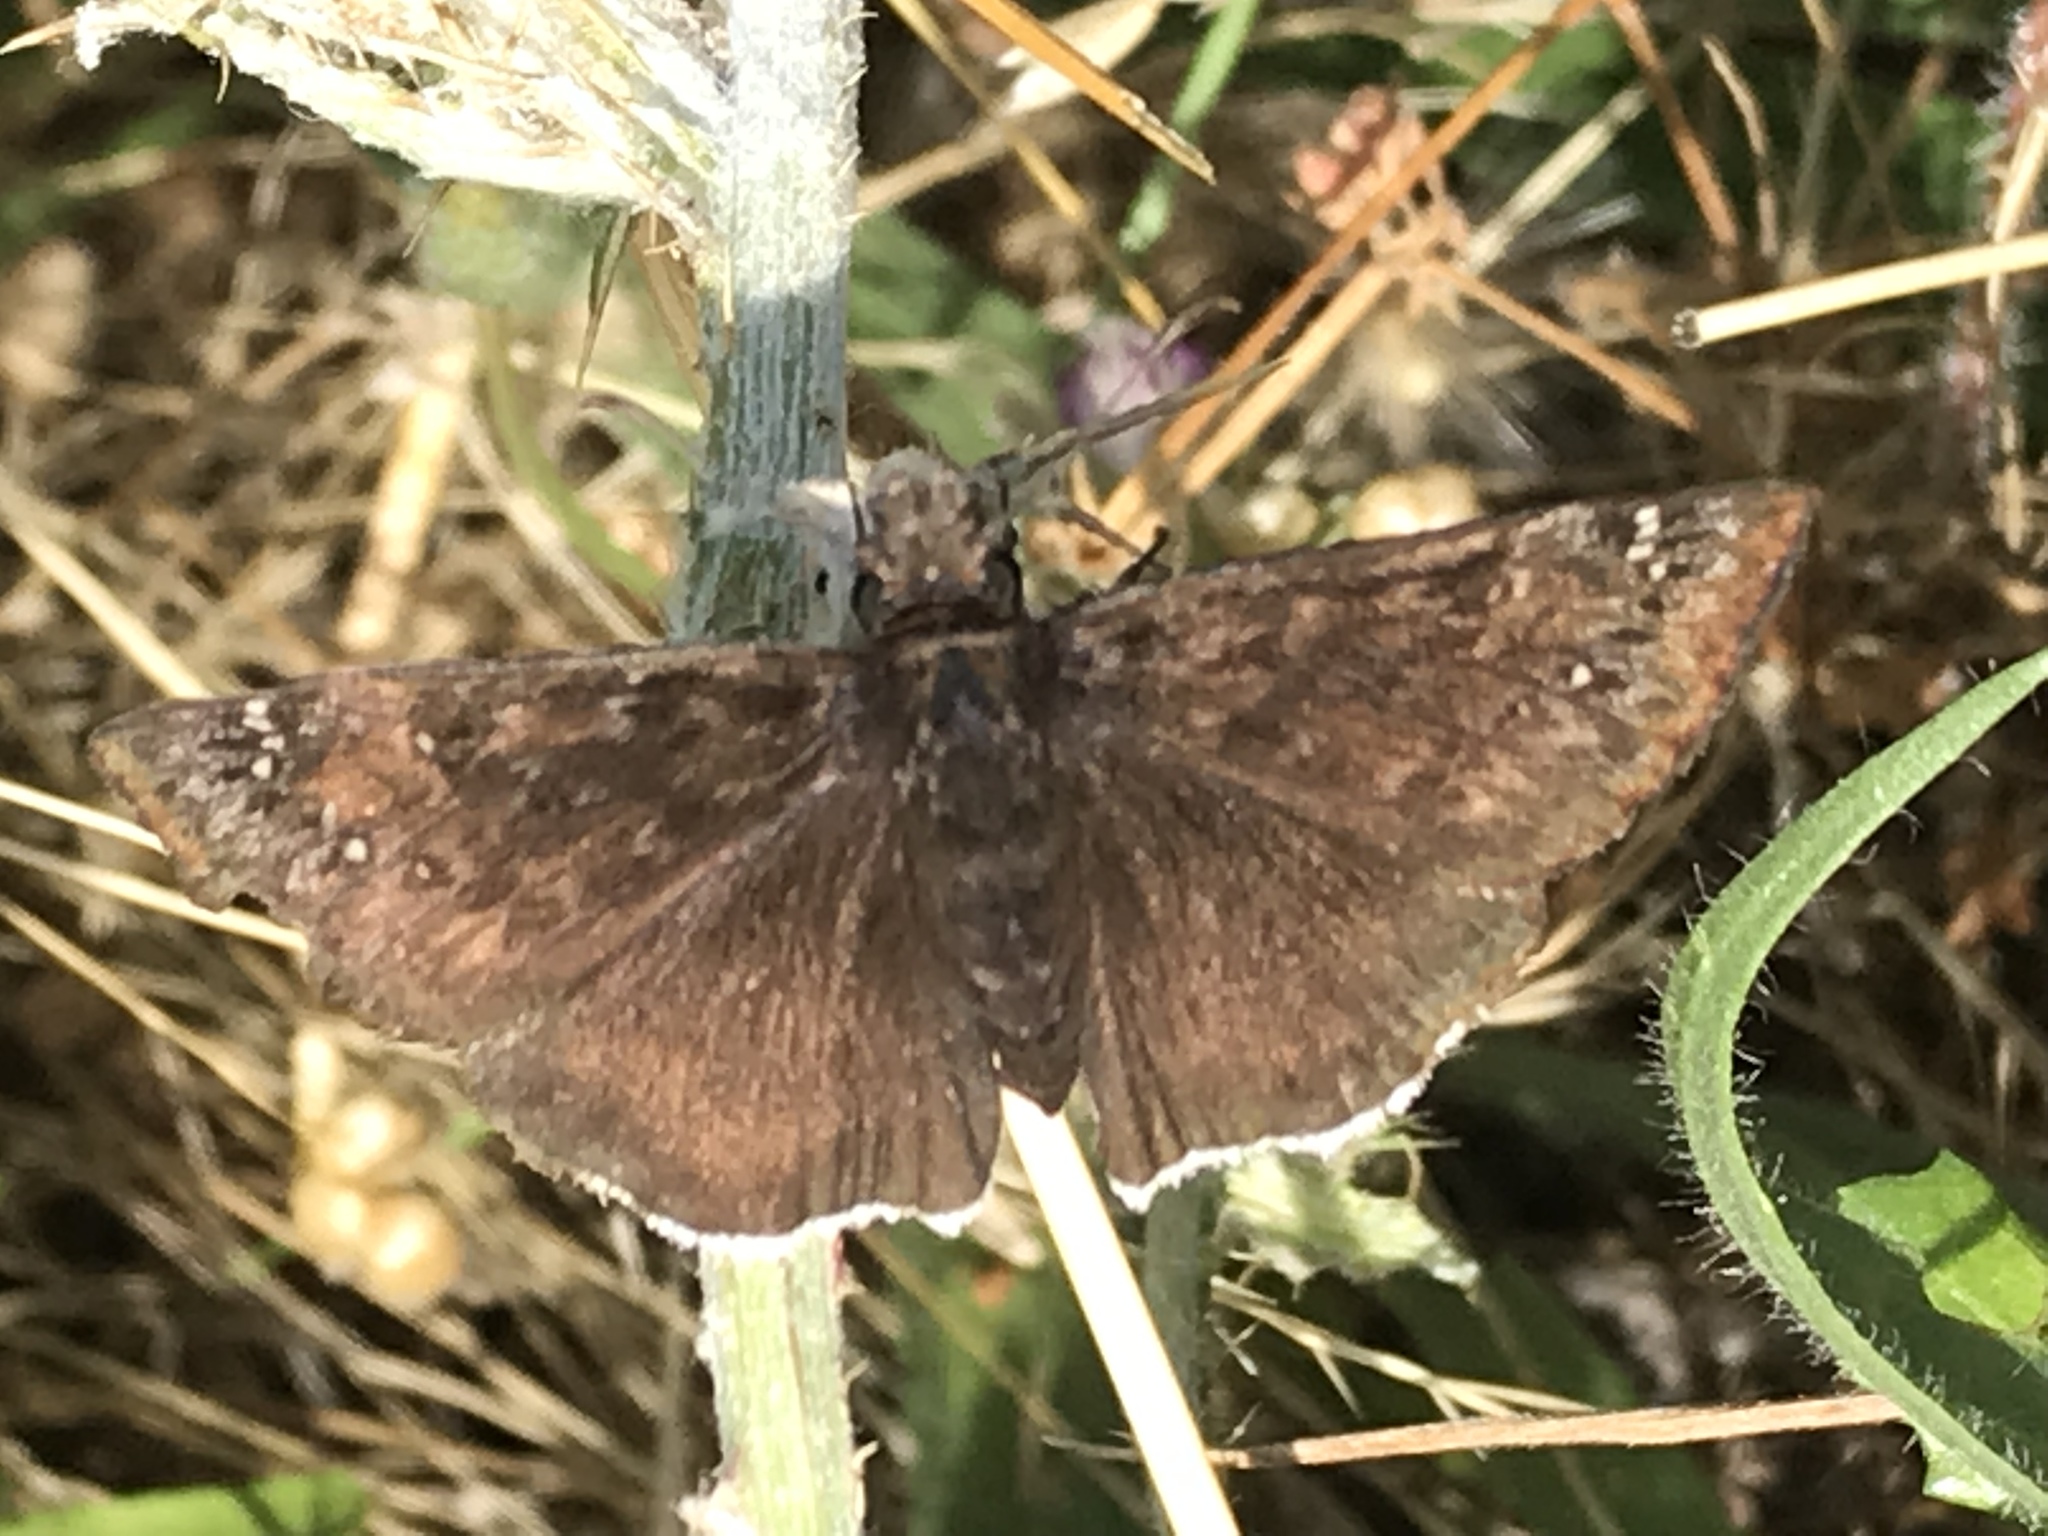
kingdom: Animalia
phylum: Arthropoda
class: Insecta
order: Lepidoptera
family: Hesperiidae
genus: Erynnis
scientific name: Erynnis tristis
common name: Mournful duskywing
